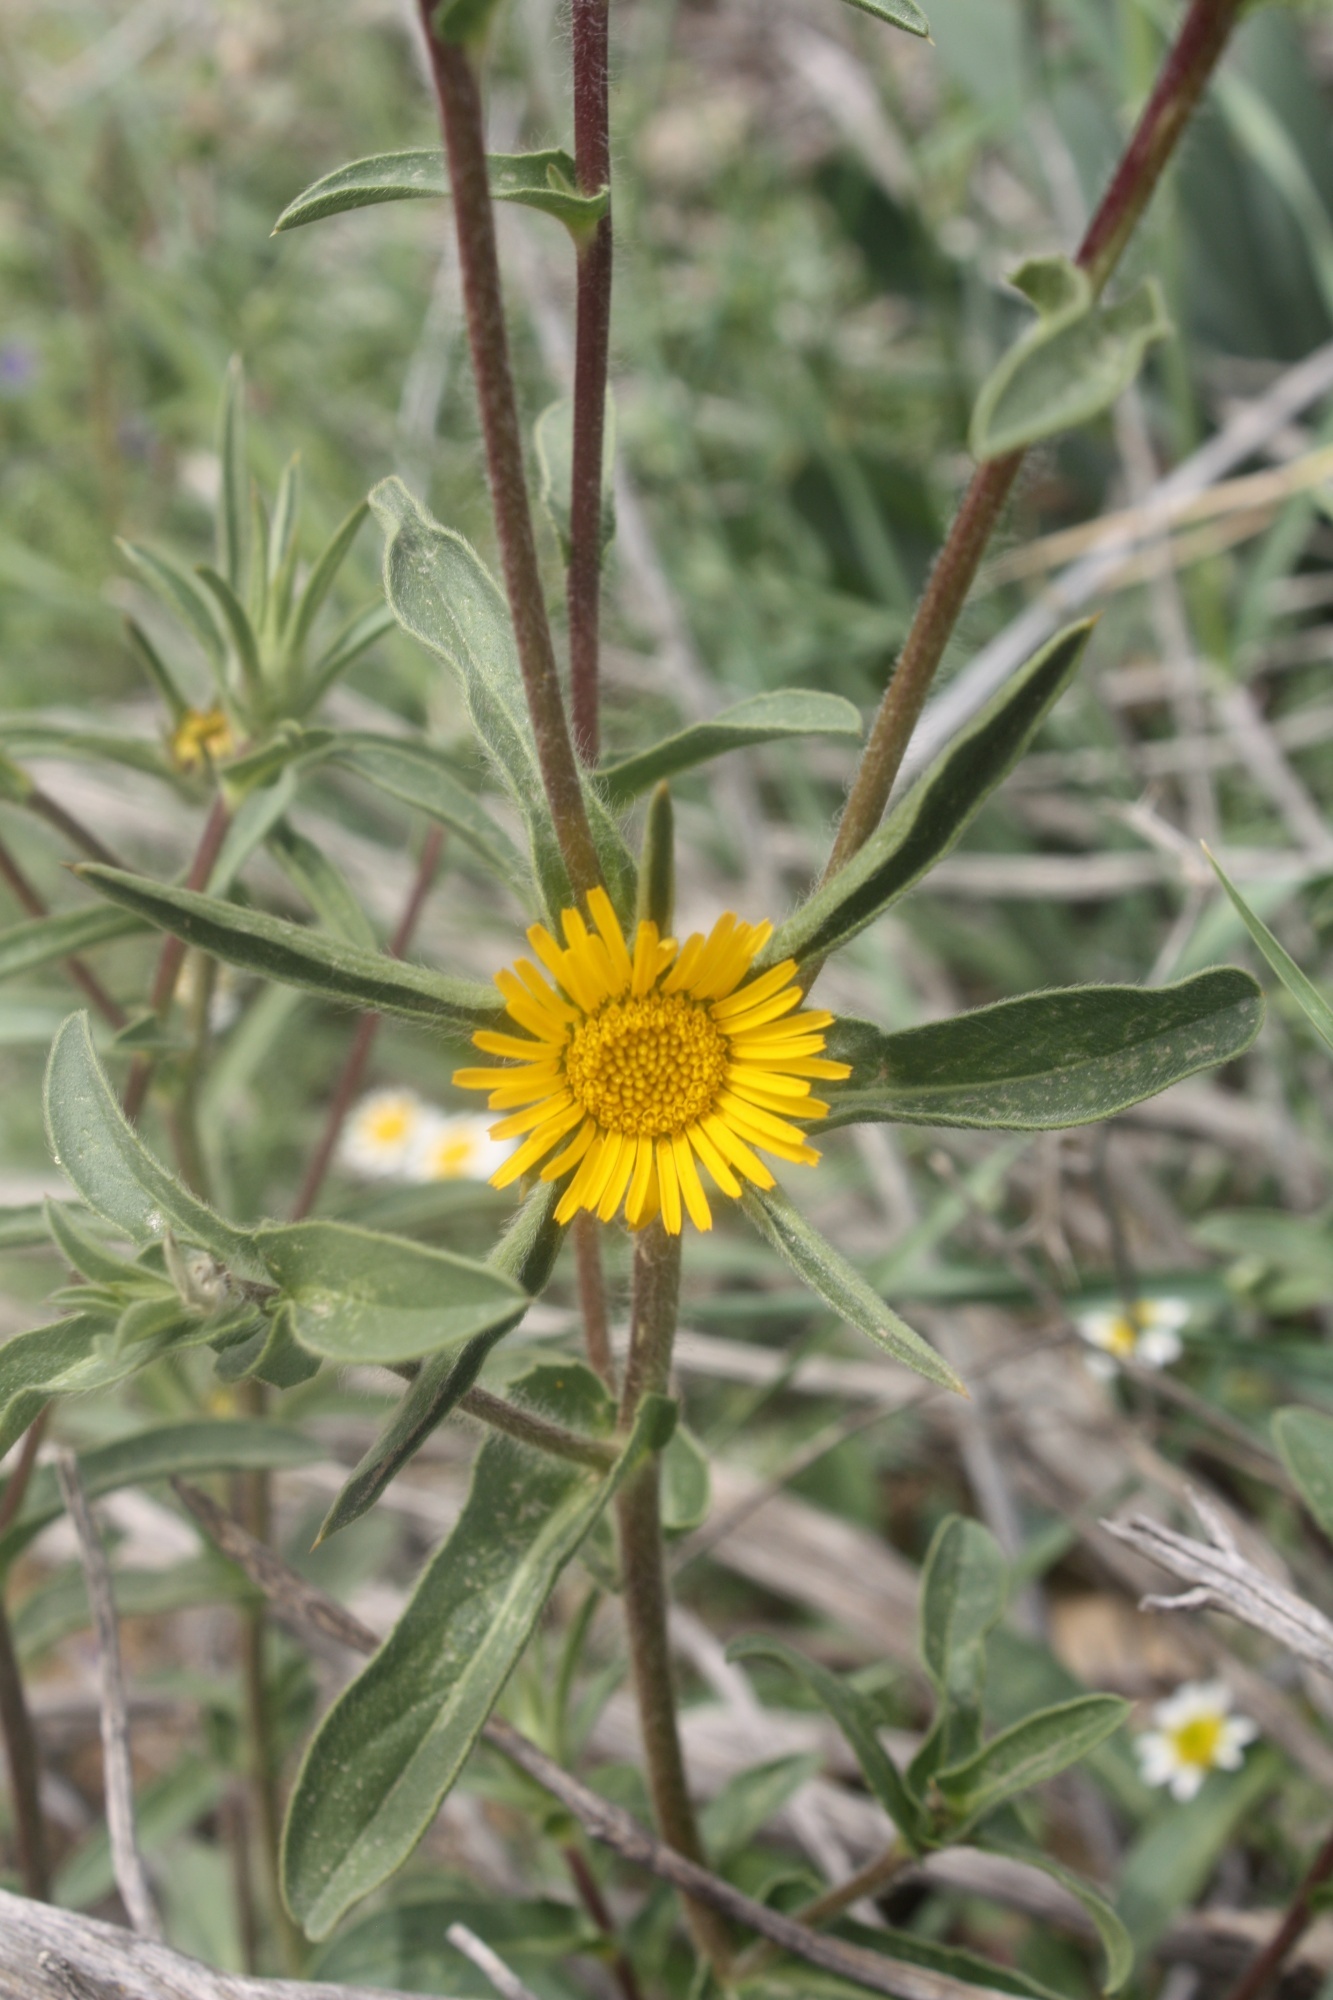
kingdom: Plantae
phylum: Tracheophyta
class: Magnoliopsida
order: Asterales
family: Asteraceae
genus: Pallenis
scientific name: Pallenis spinosa
